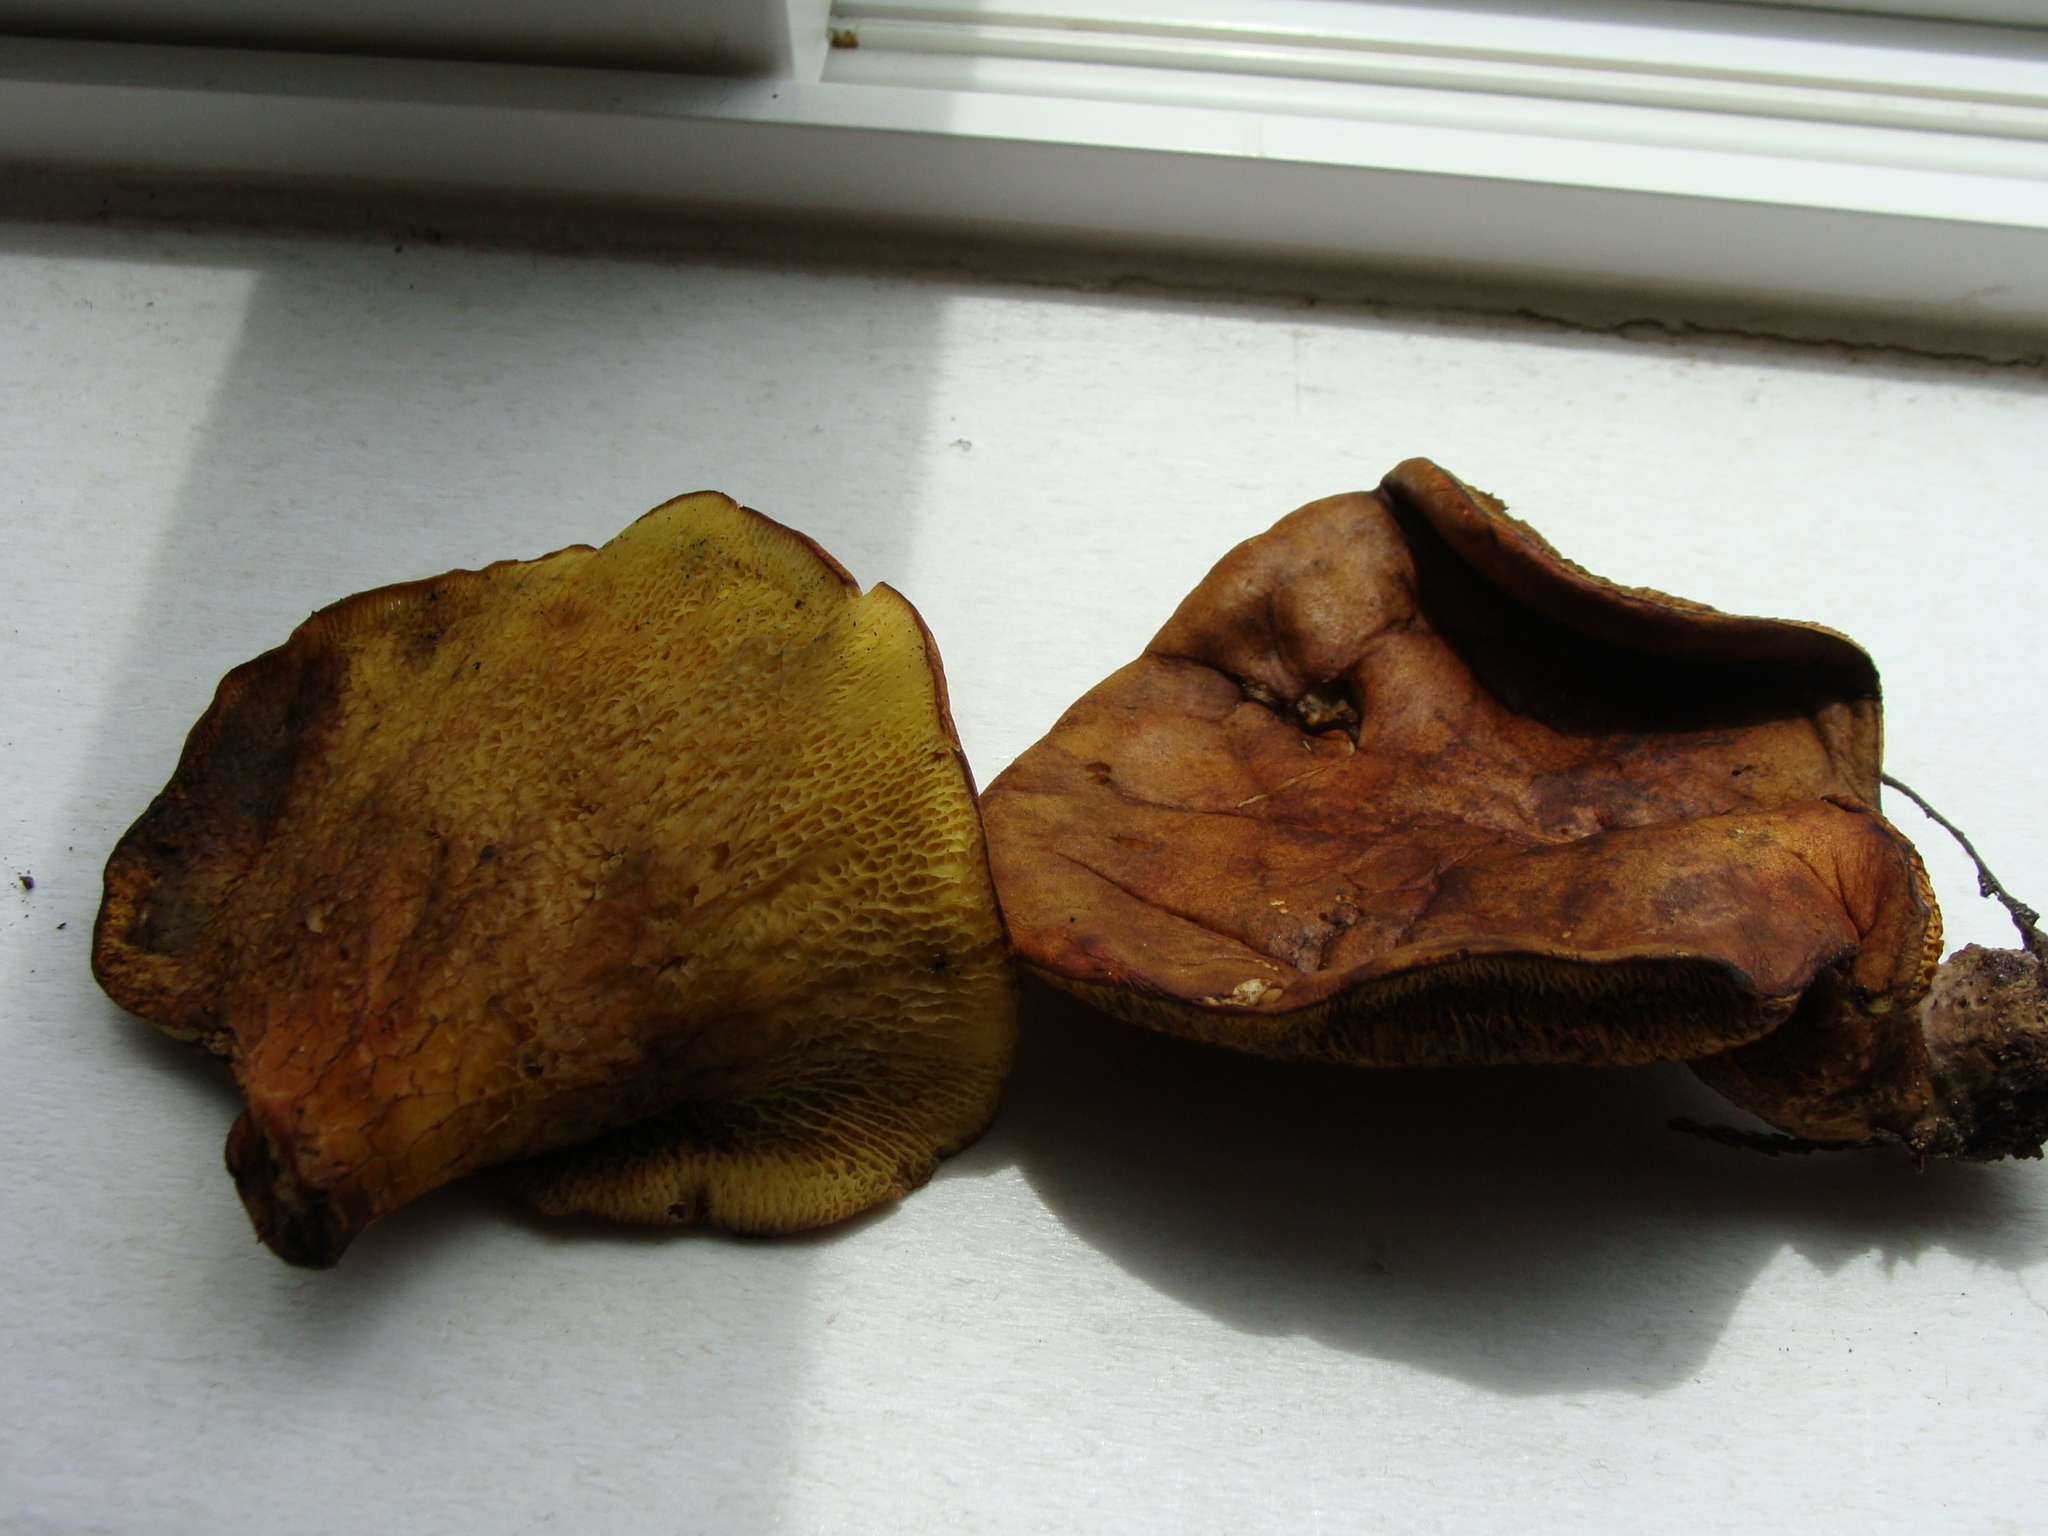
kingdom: Fungi
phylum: Basidiomycota
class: Agaricomycetes
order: Boletales
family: Boletinellaceae
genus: Boletinellus
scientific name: Boletinellus merulioides
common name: Ash tree bolete
